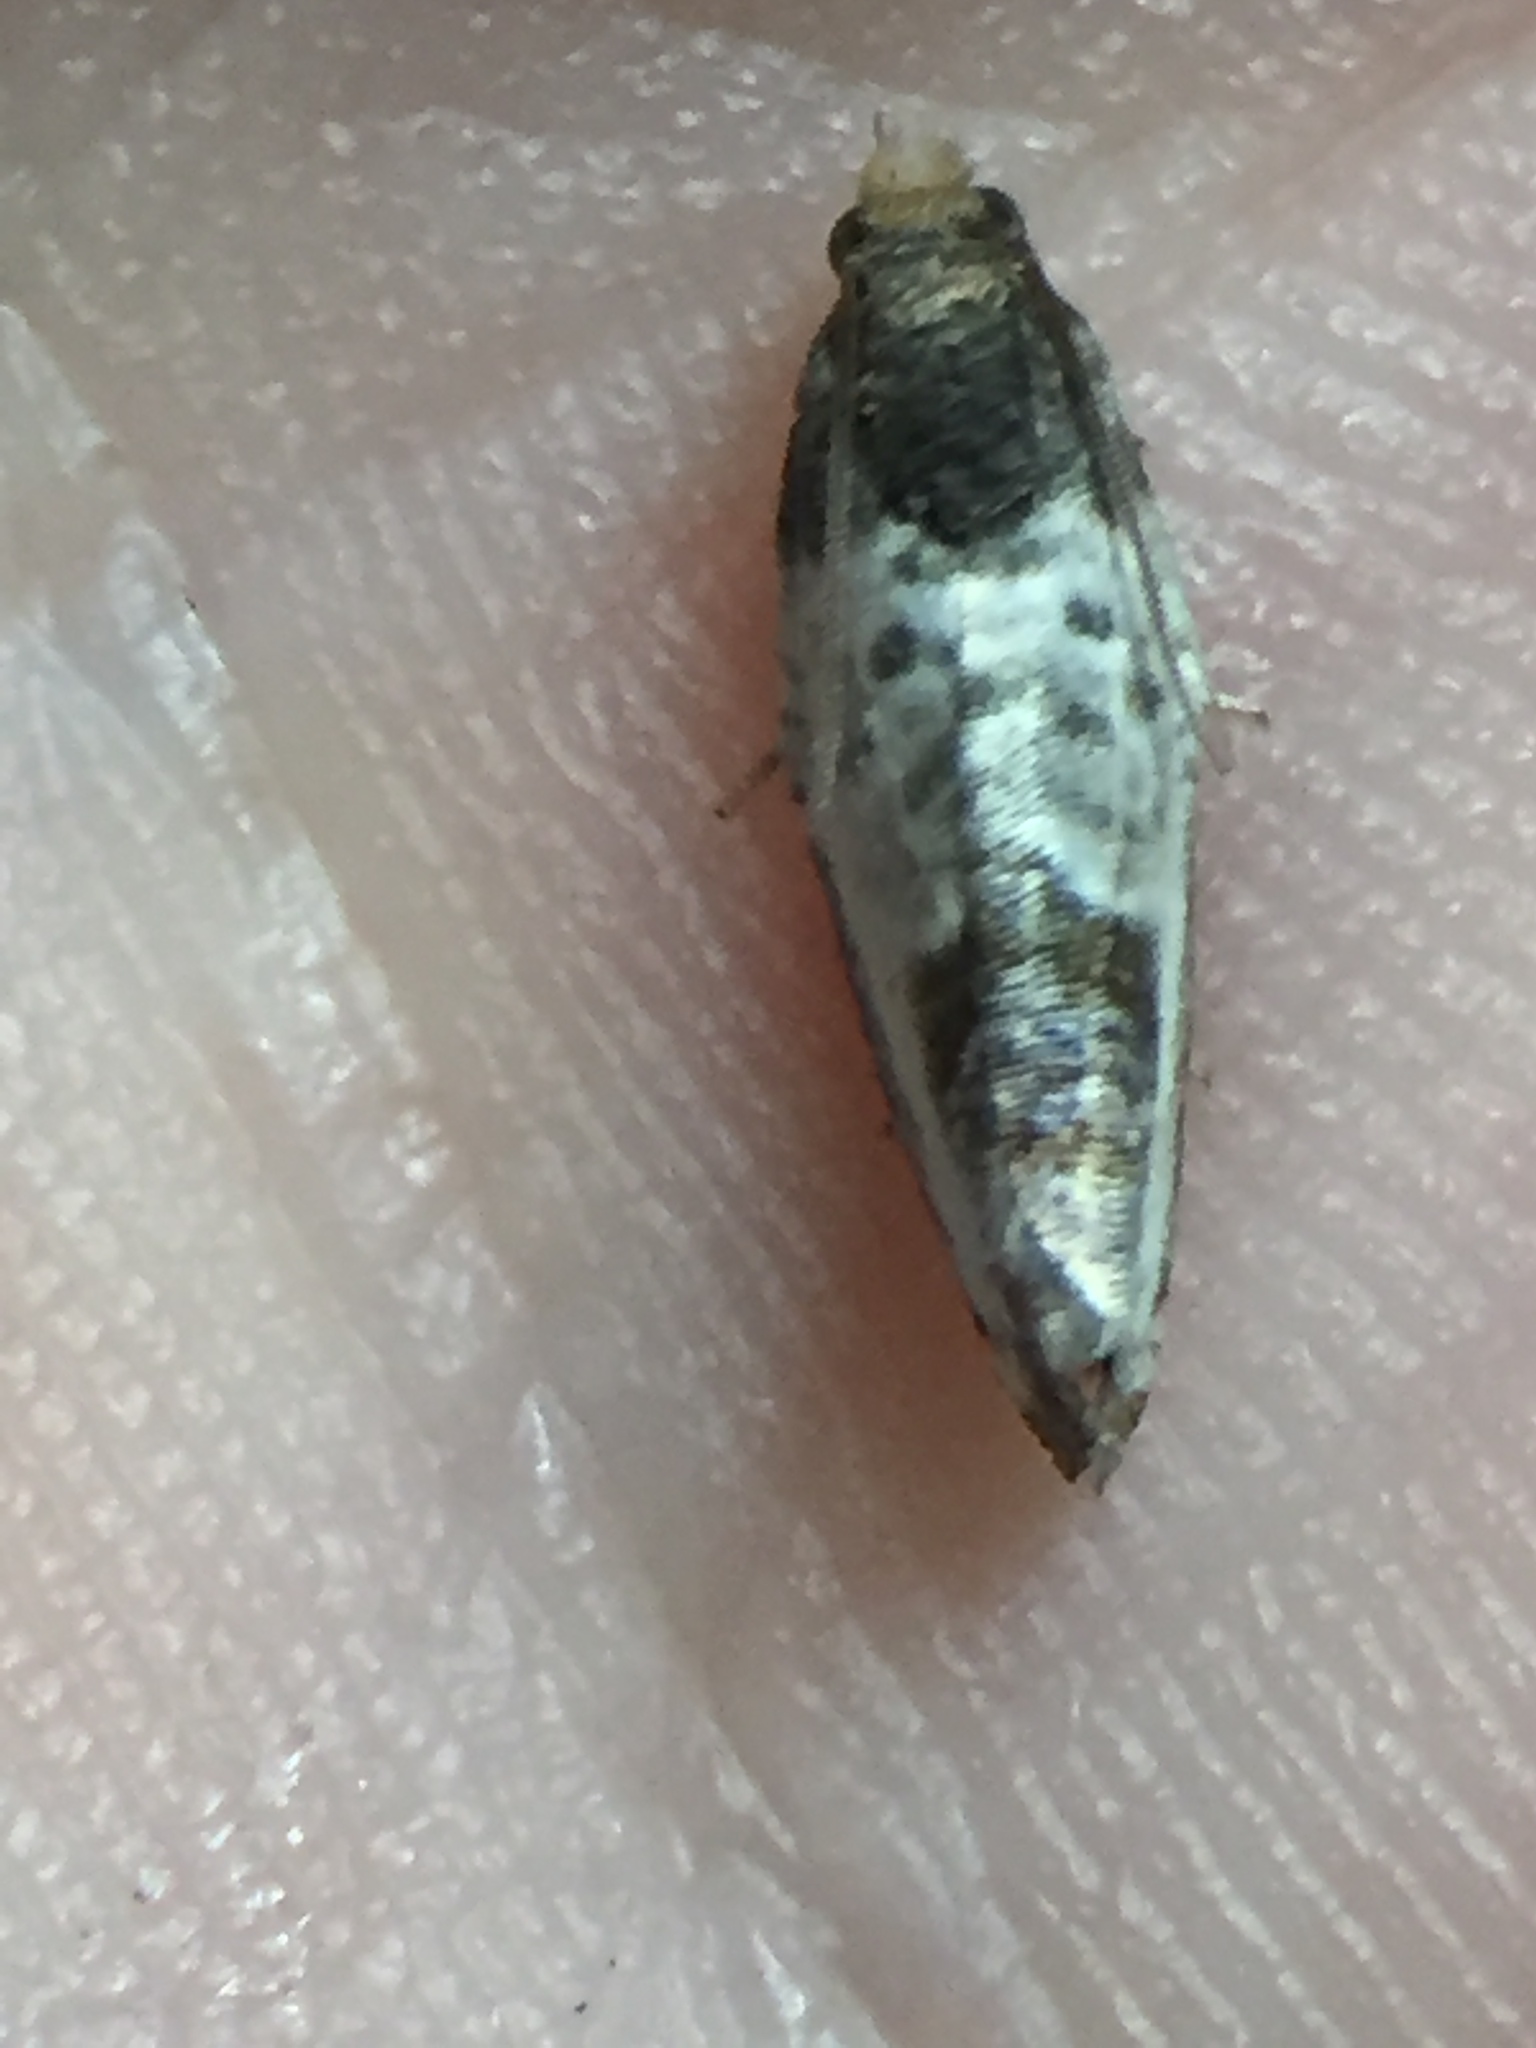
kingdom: Animalia
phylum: Arthropoda
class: Insecta
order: Lepidoptera
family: Tortricidae
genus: Argyroploce
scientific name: Argyroploce chlorosaris
